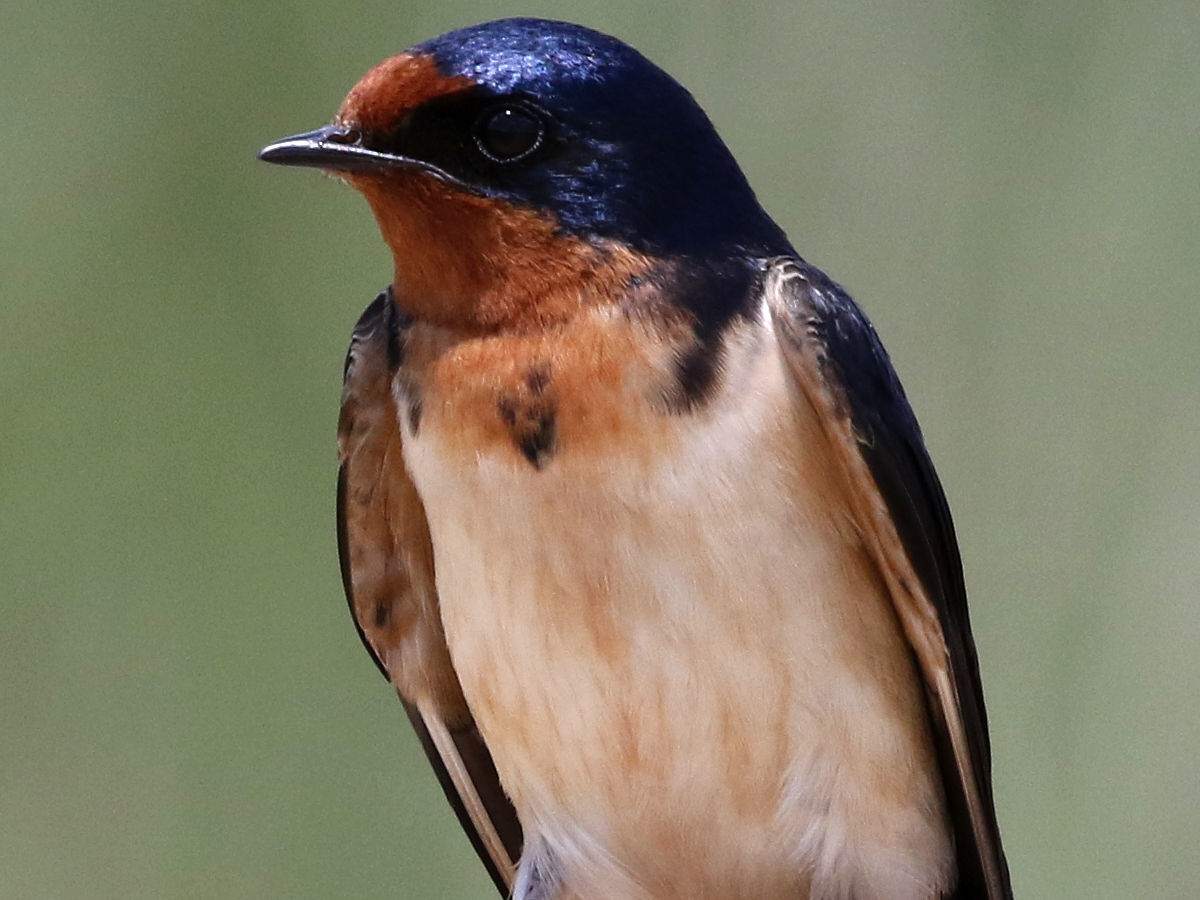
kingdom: Animalia
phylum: Chordata
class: Aves
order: Passeriformes
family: Hirundinidae
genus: Hirundo
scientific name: Hirundo rustica
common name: Barn swallow
